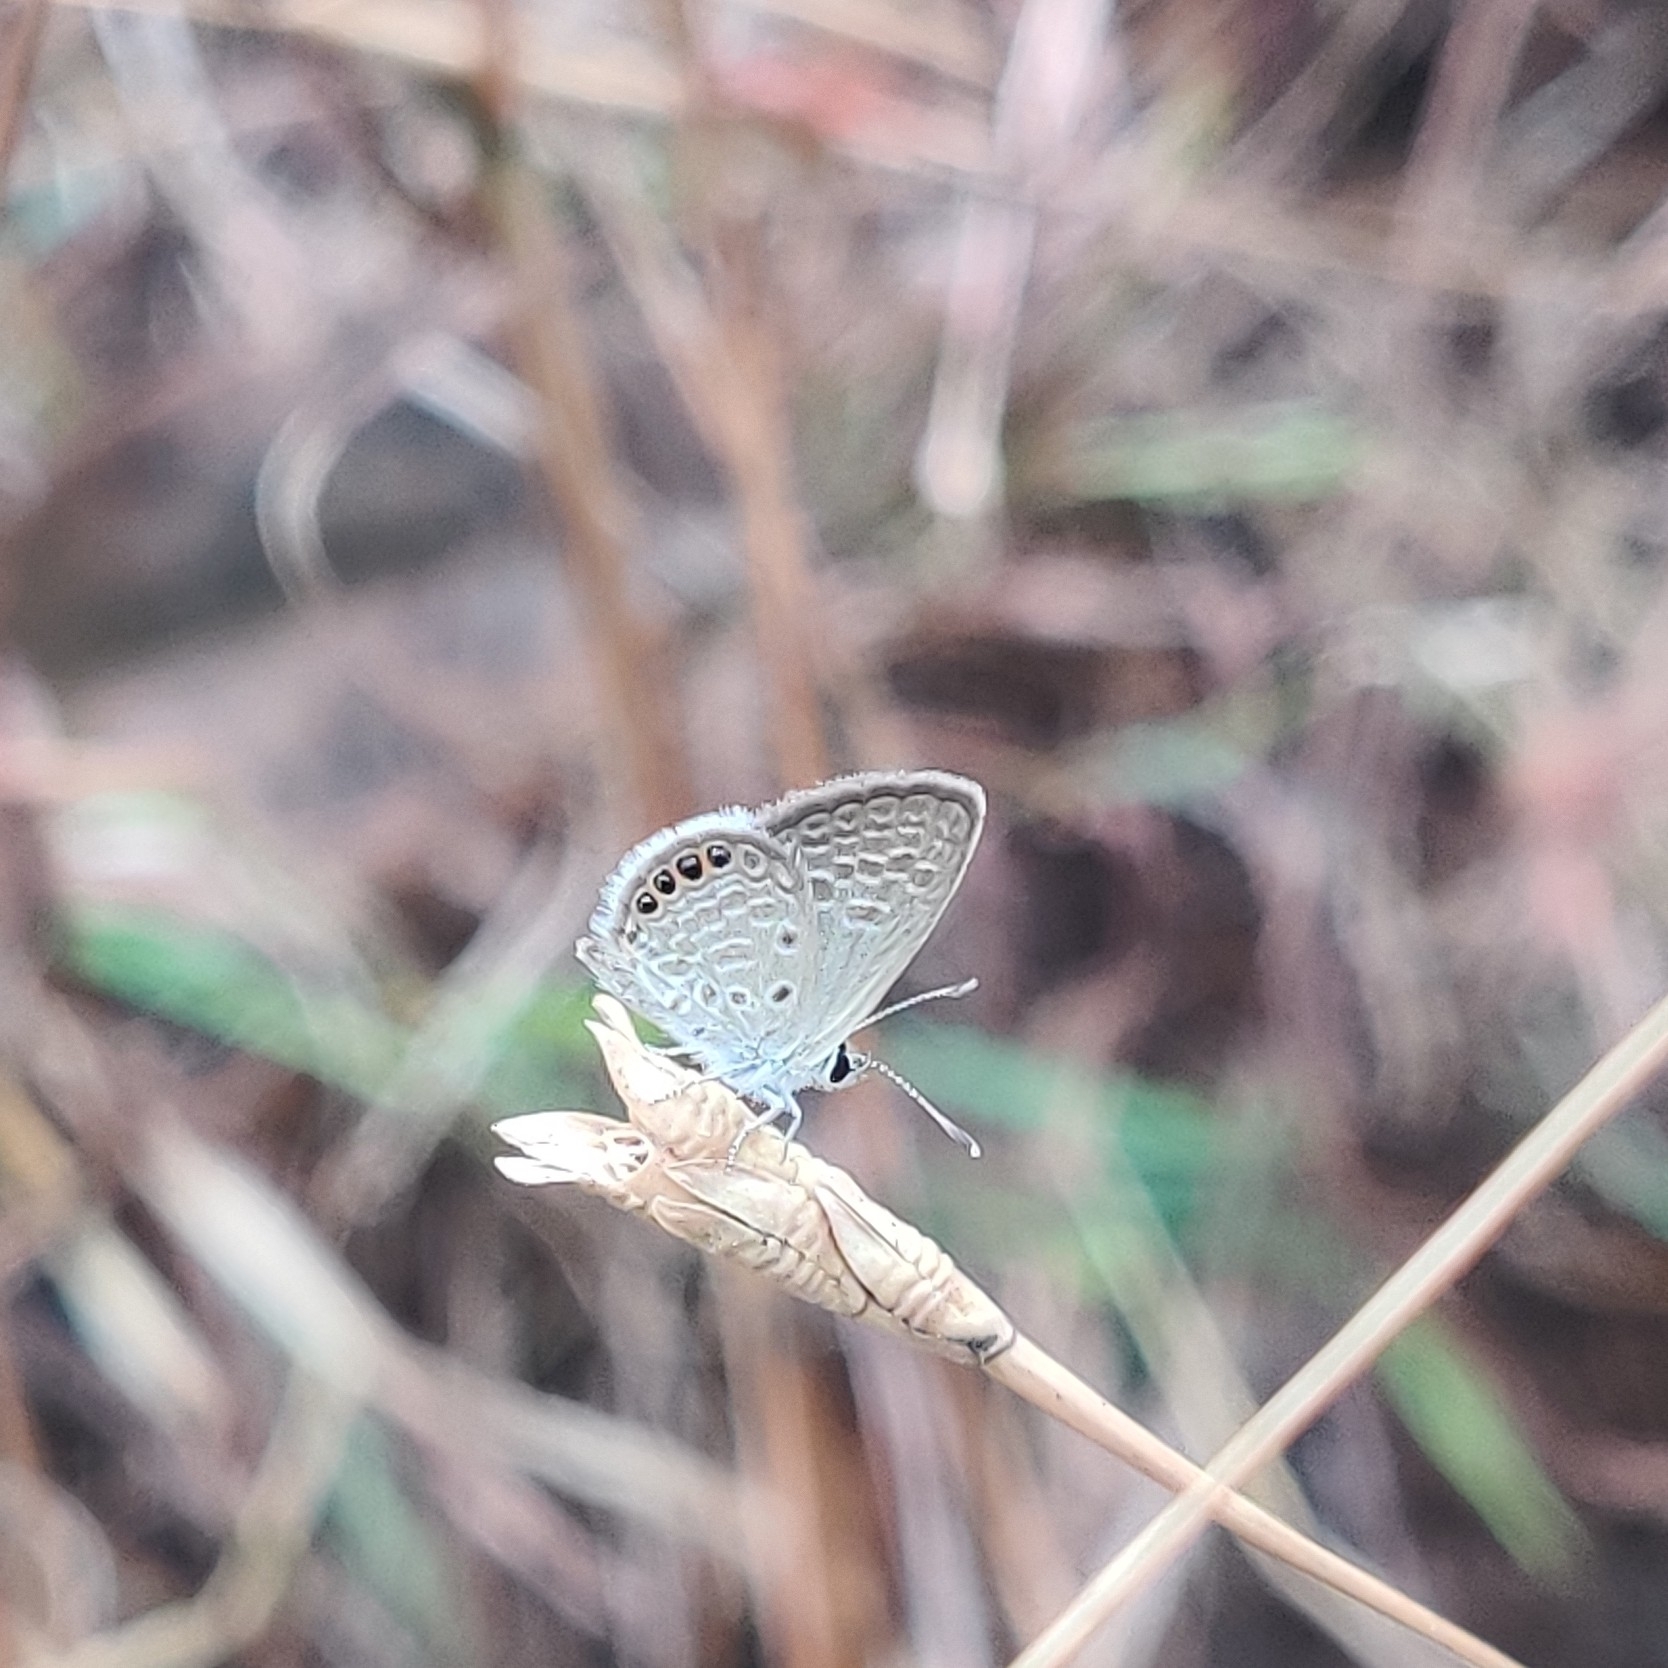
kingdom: Animalia
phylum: Arthropoda
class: Insecta
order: Lepidoptera
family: Lycaenidae
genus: Freyeria
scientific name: Freyeria putli
